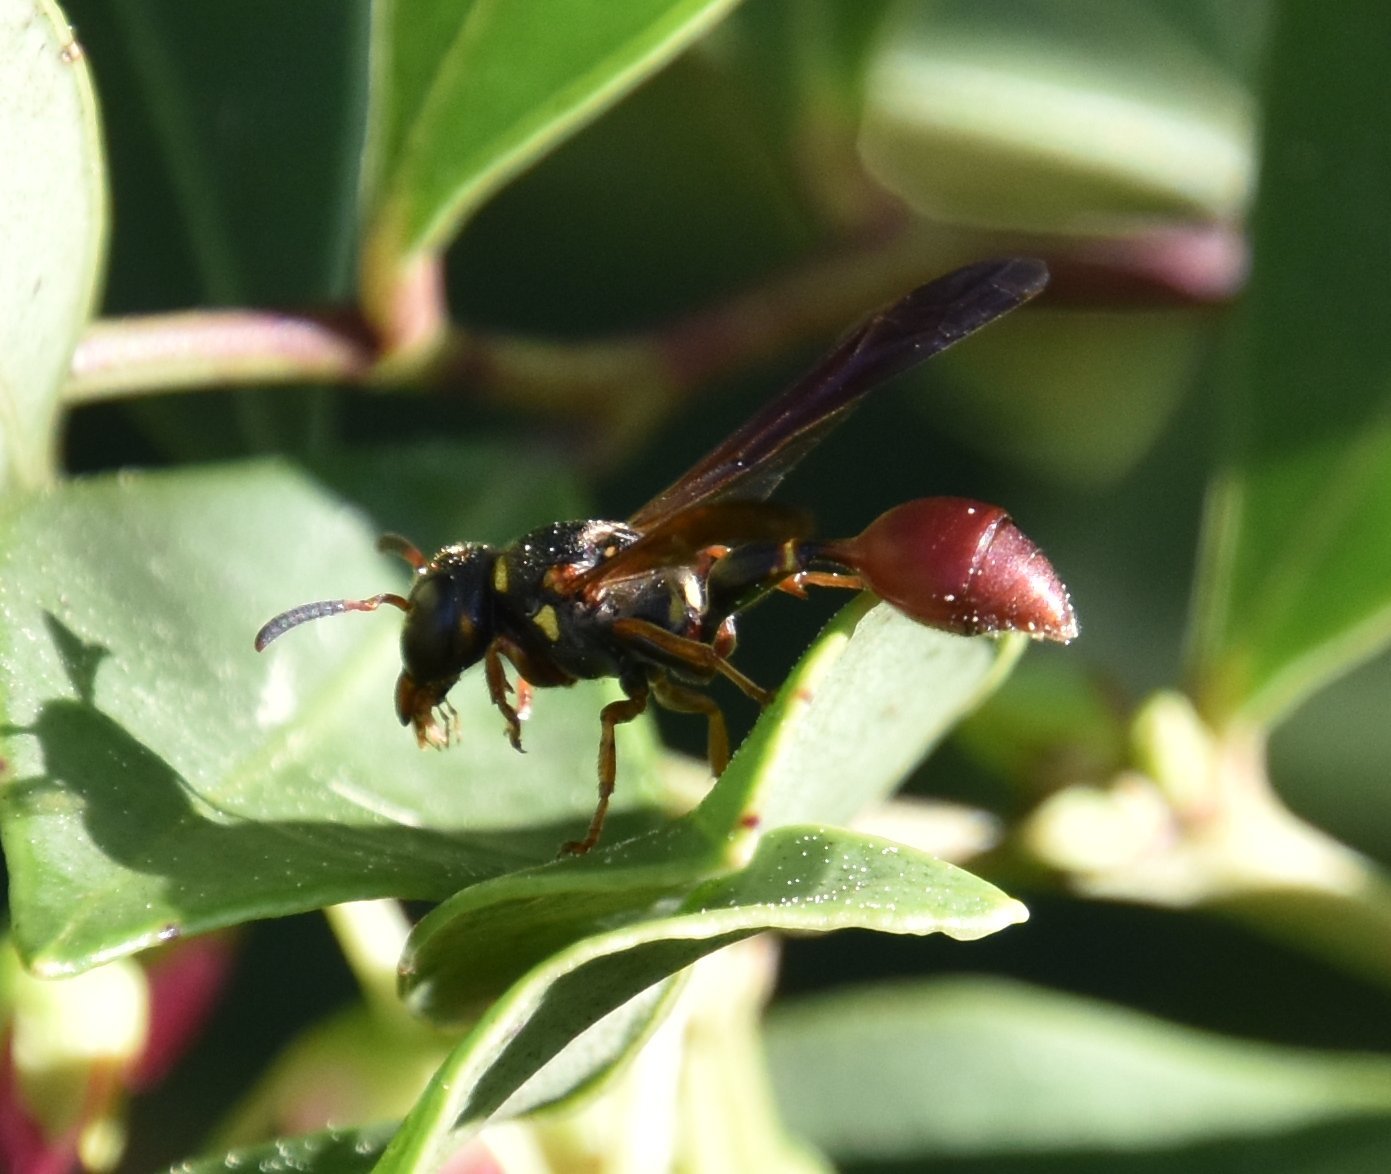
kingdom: Animalia
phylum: Arthropoda
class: Insecta
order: Hymenoptera
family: Eumenidae
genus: Zethus
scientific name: Zethus slossonae
